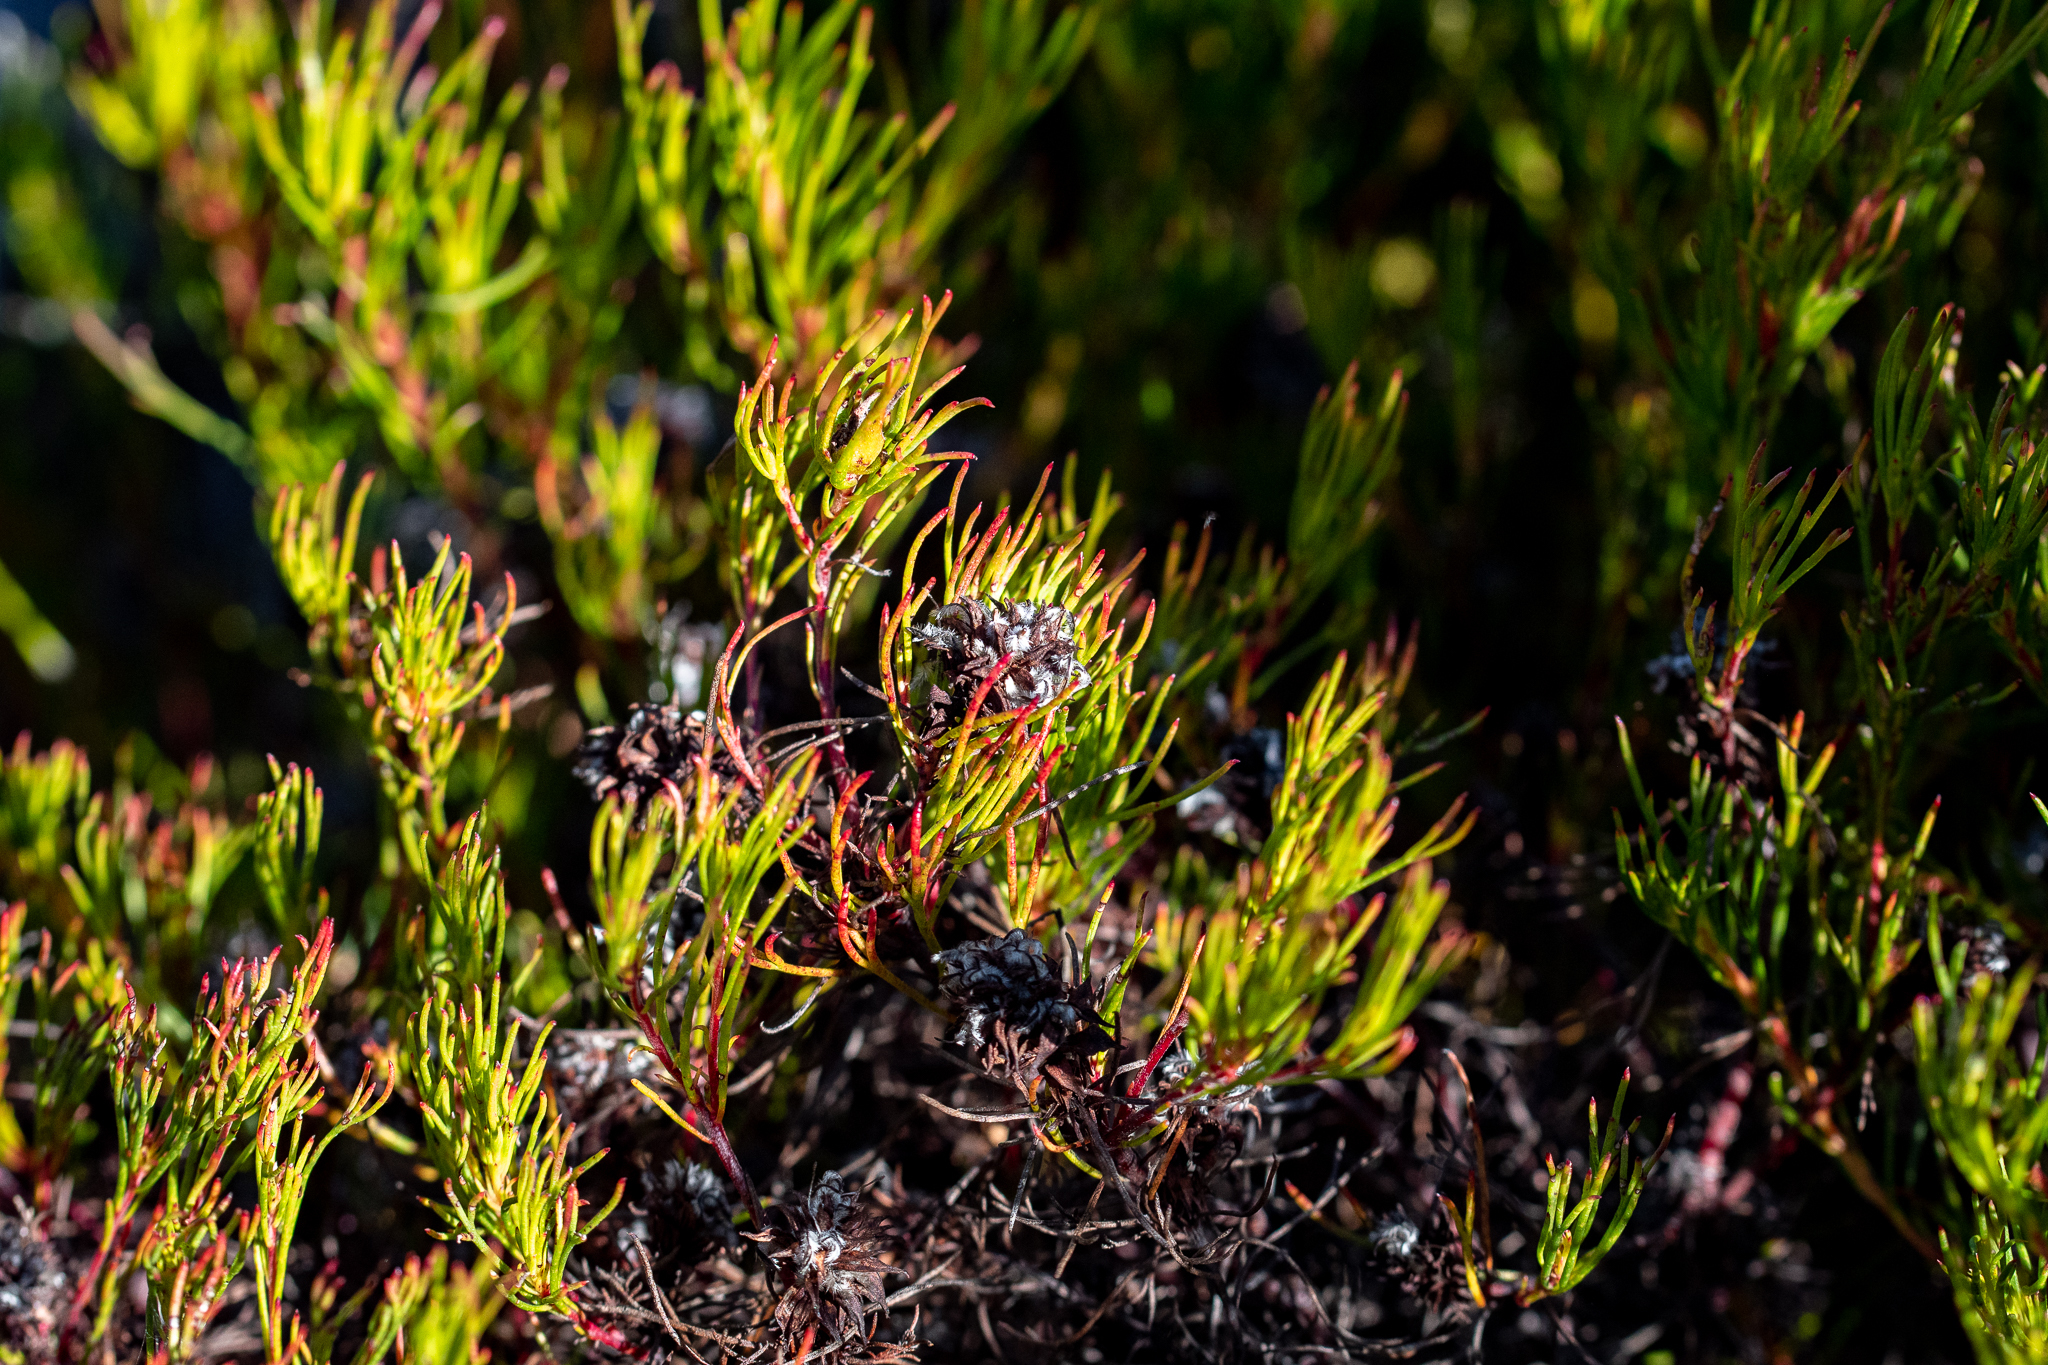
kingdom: Plantae
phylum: Tracheophyta
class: Magnoliopsida
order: Proteales
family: Proteaceae
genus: Serruria
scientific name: Serruria nervosa
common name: Fluted spiderhead
